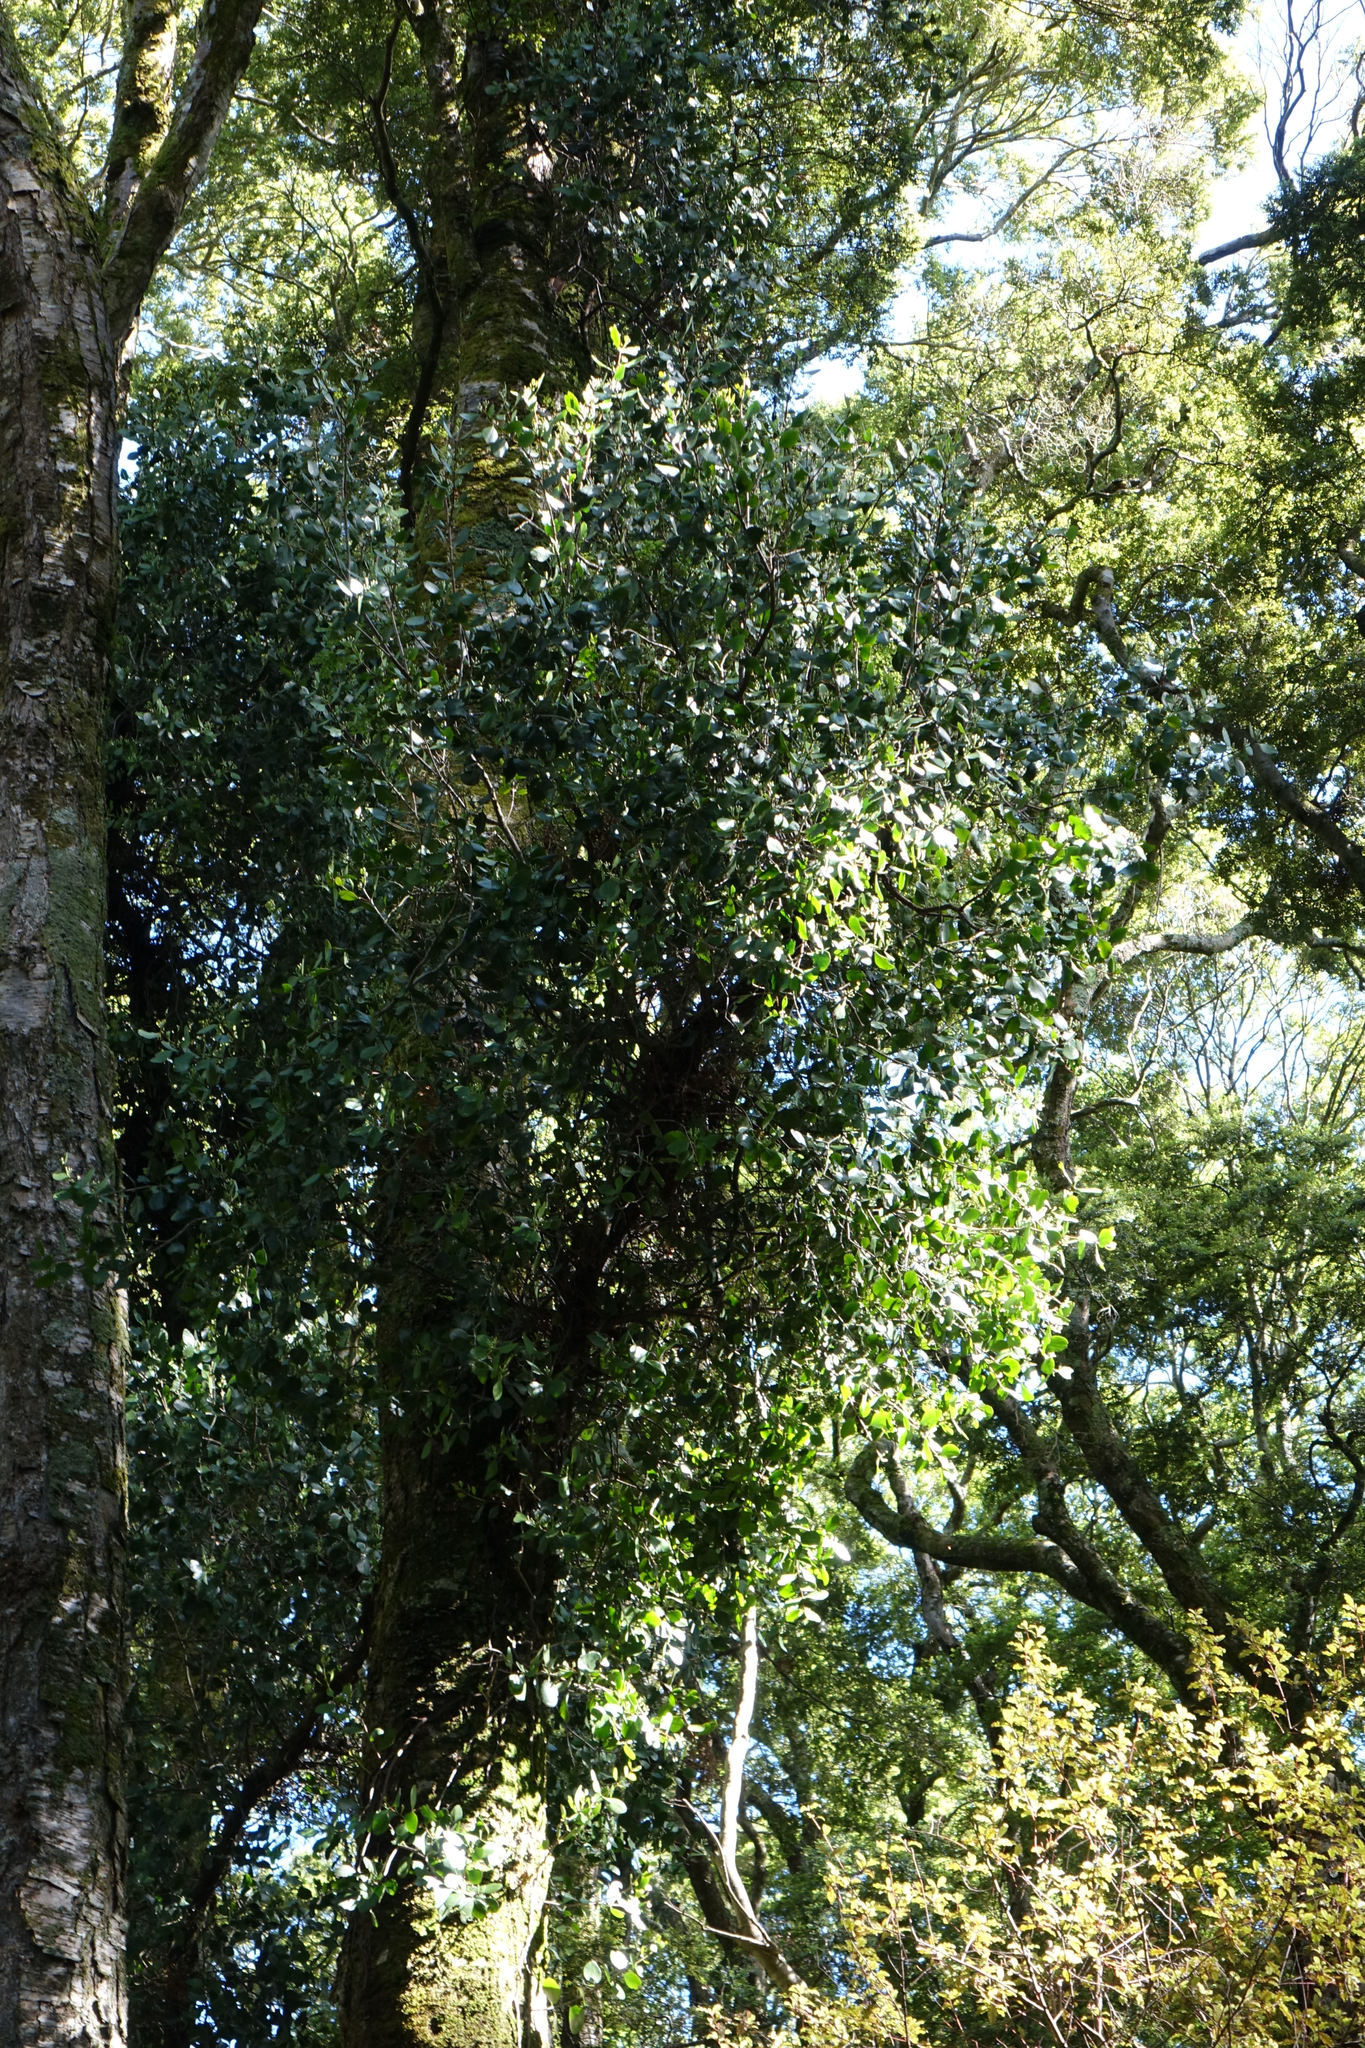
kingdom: Plantae
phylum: Tracheophyta
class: Magnoliopsida
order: Santalales
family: Loranthaceae
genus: Peraxilla
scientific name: Peraxilla colensoi
